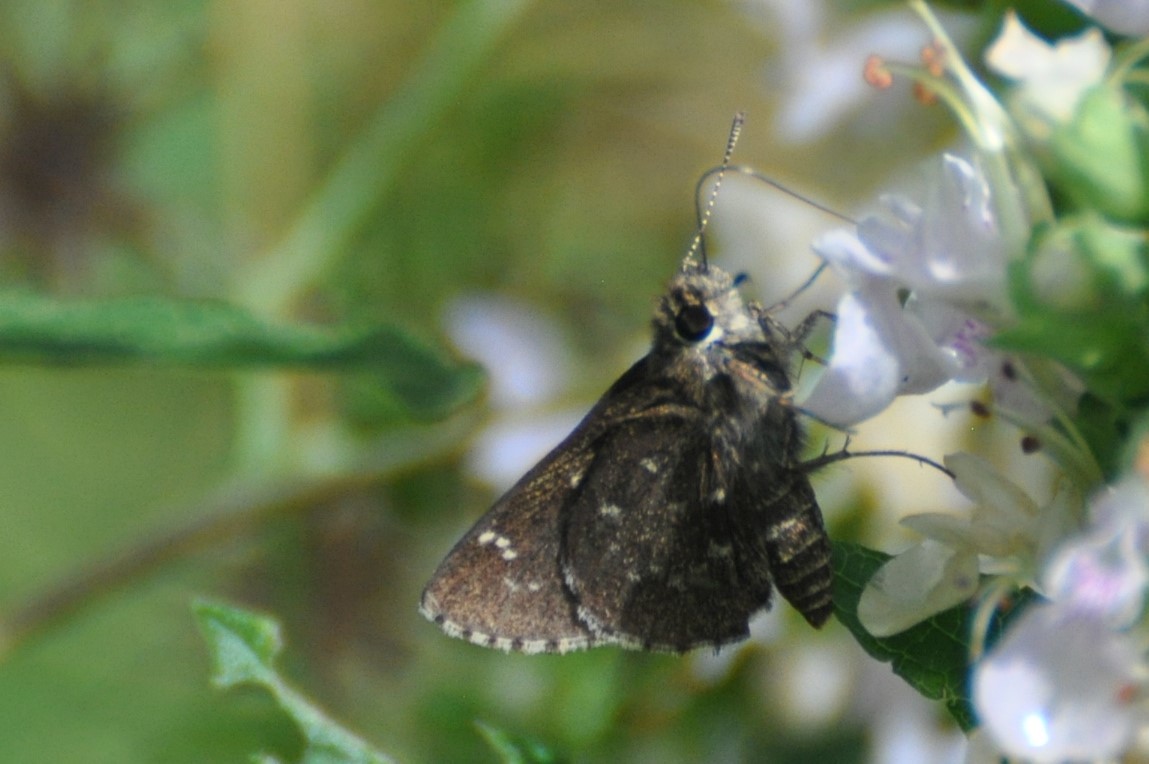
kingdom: Animalia
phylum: Arthropoda
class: Insecta
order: Lepidoptera
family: Hesperiidae
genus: Mastor
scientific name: Mastor celia
